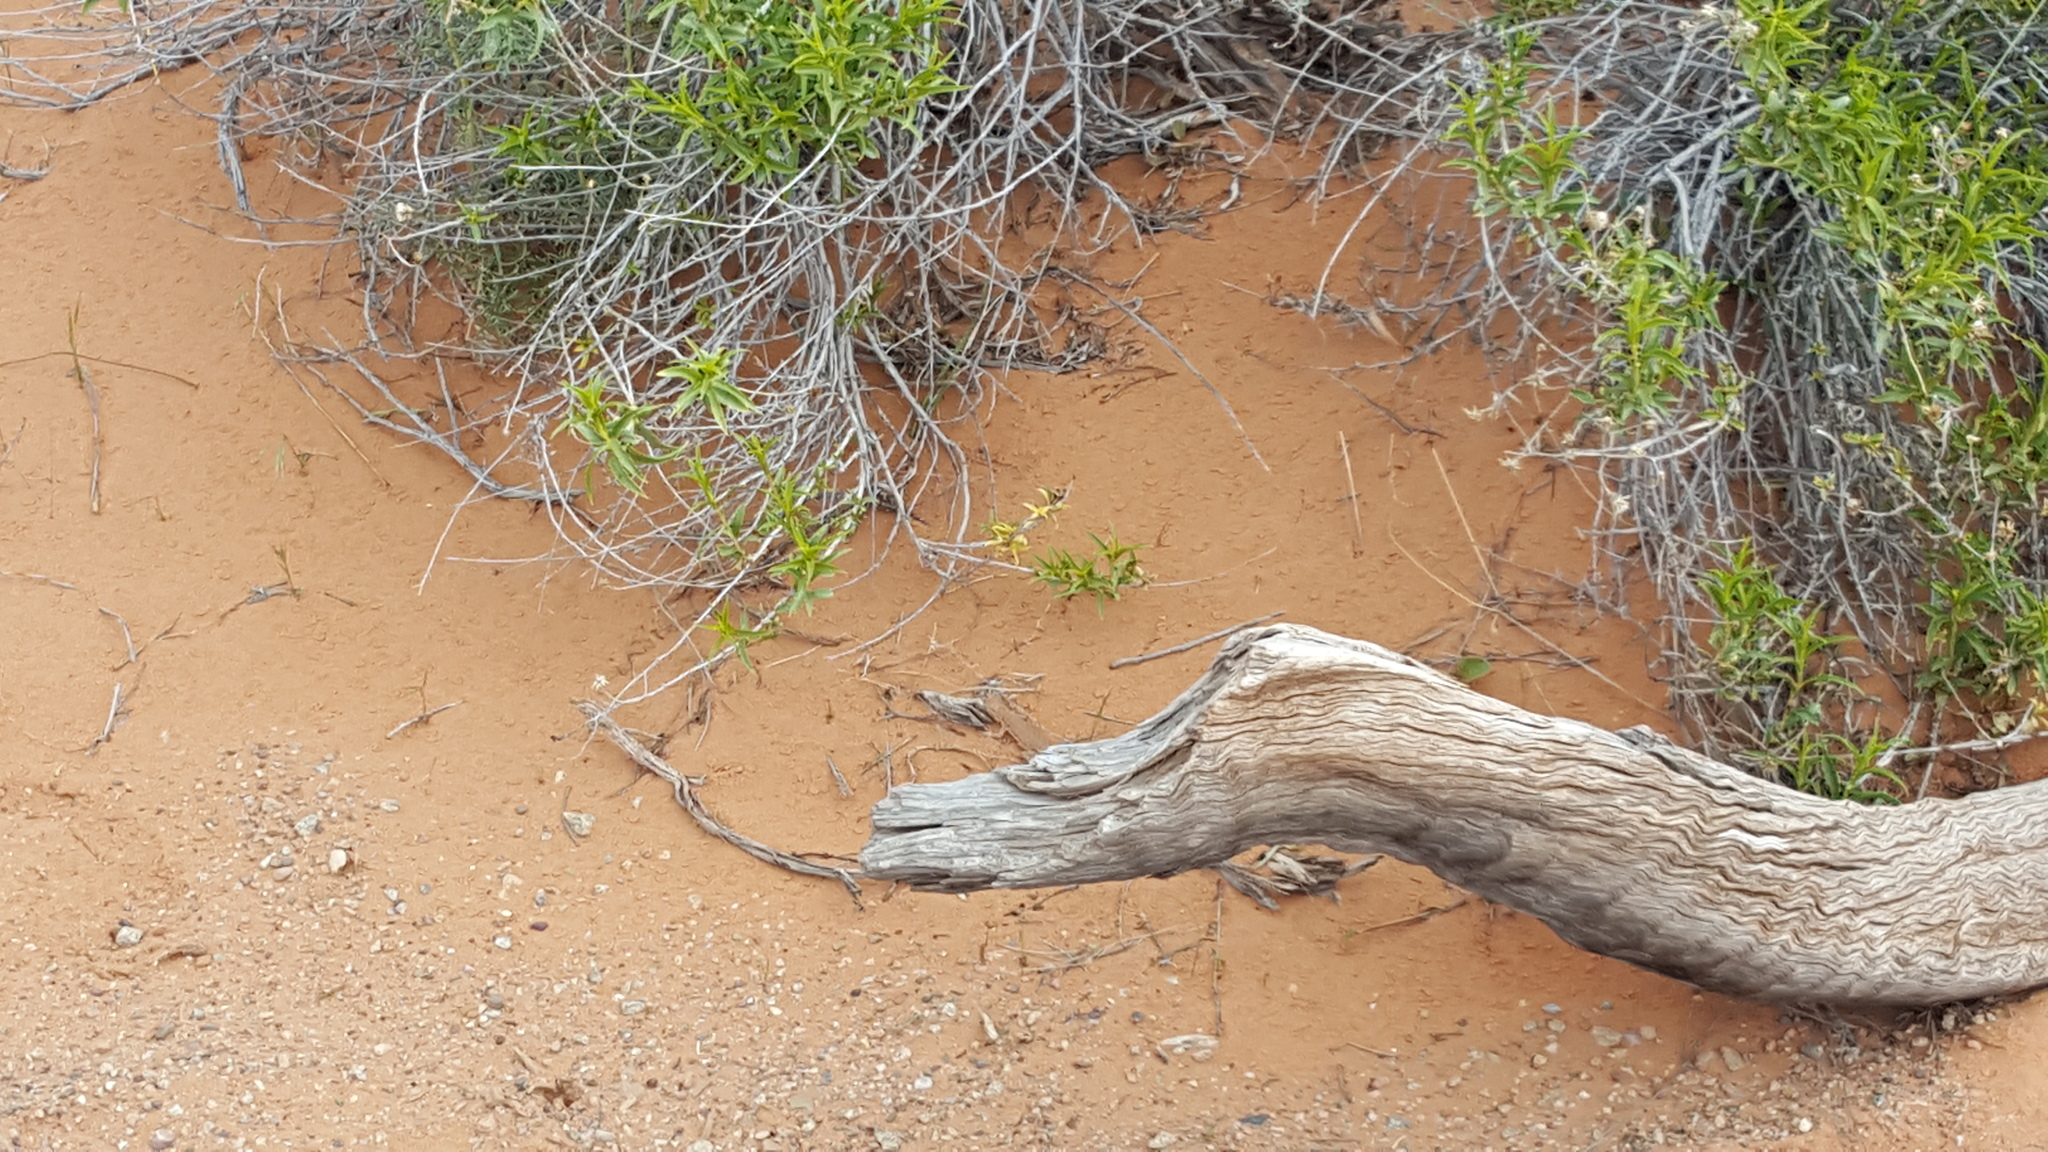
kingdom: Animalia
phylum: Chordata
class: Squamata
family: Phrynosomatidae
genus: Uta
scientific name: Uta stansburiana
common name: Side-blotched lizard
